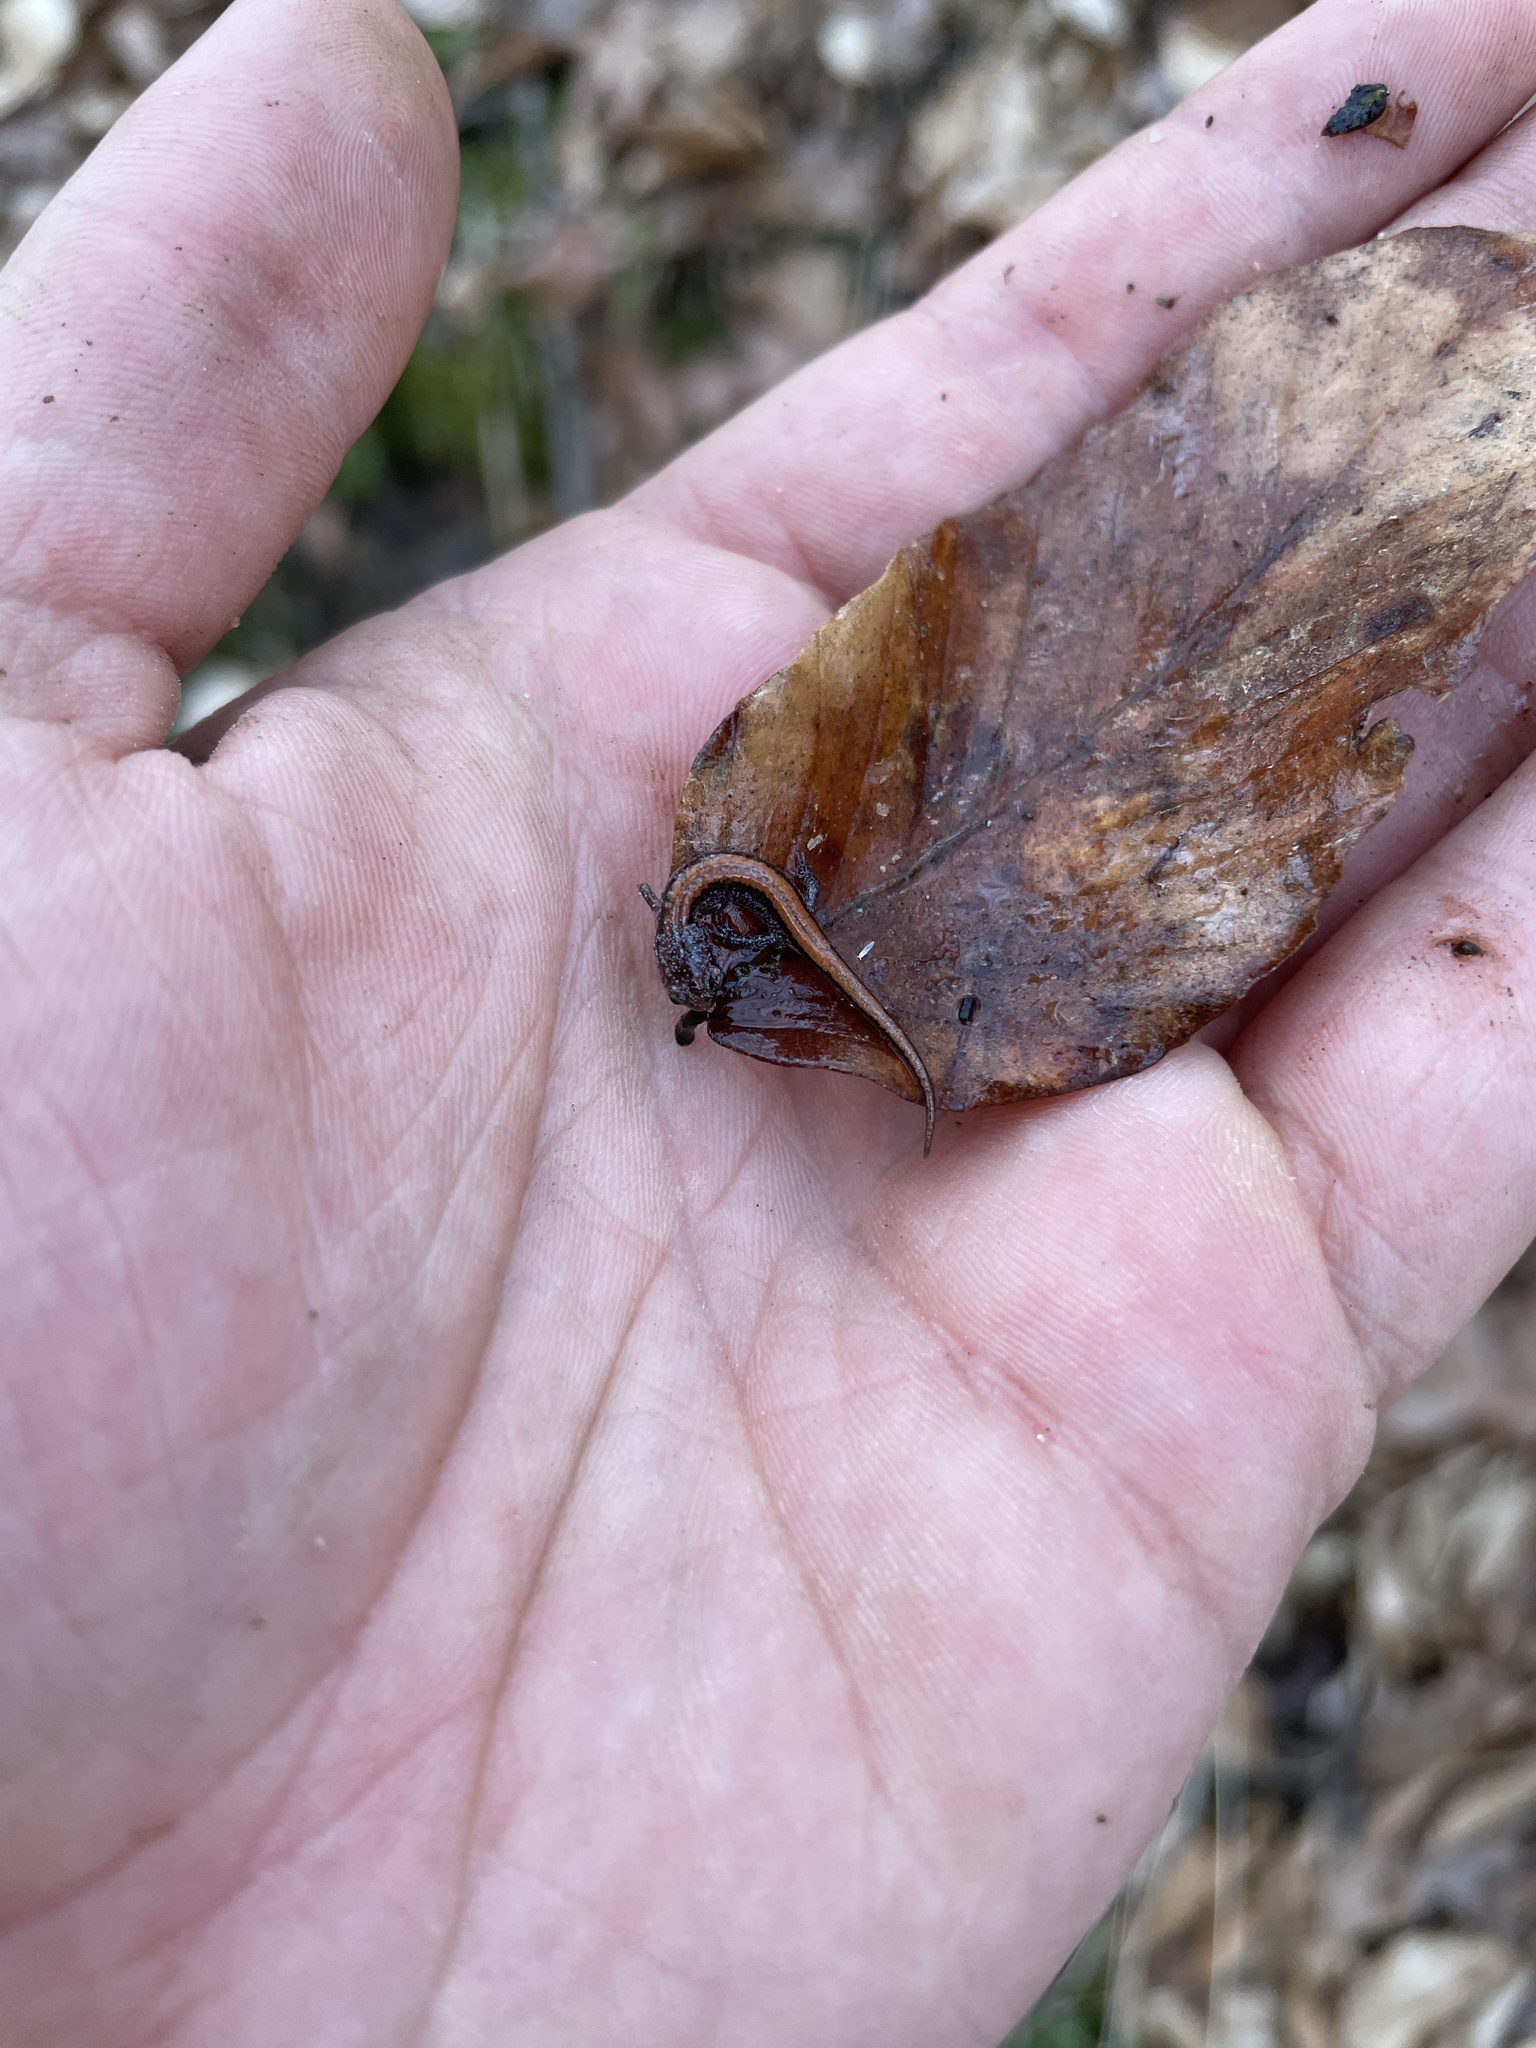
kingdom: Animalia
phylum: Chordata
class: Amphibia
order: Caudata
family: Plethodontidae
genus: Plethodon
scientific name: Plethodon websteri
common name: Webster's salamander
